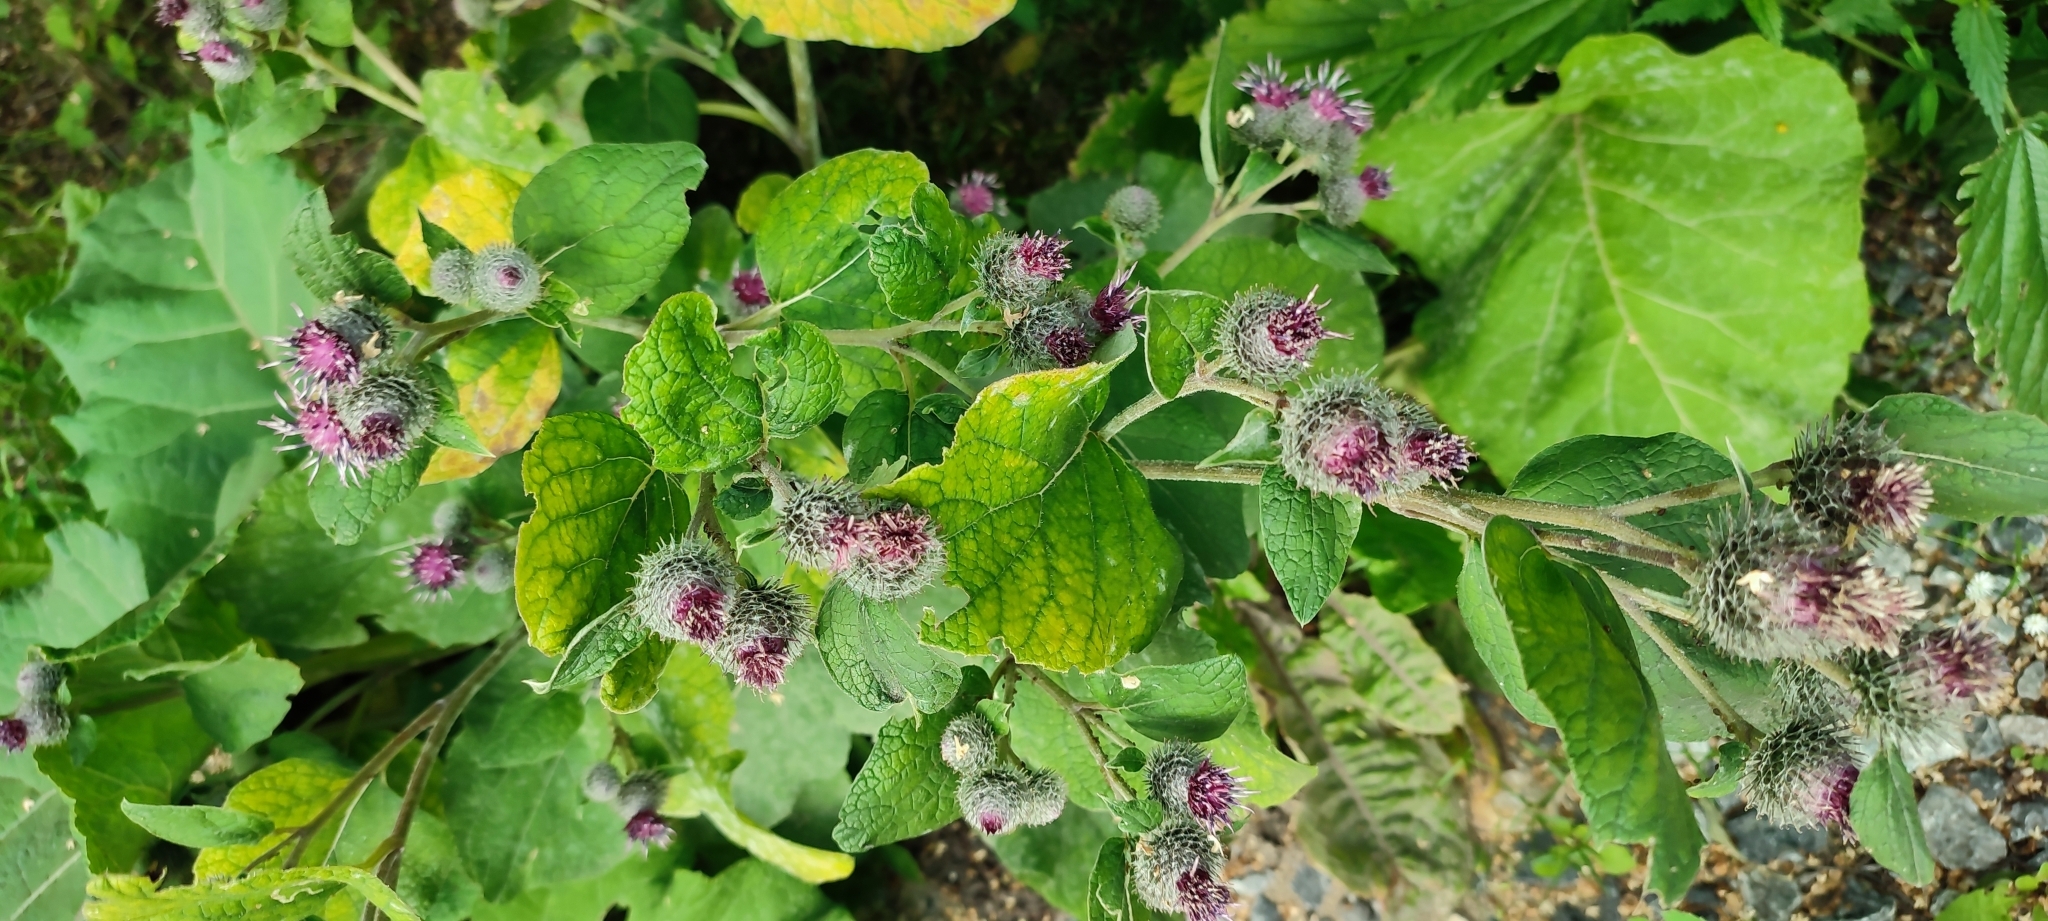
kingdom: Plantae
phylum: Tracheophyta
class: Magnoliopsida
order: Asterales
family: Asteraceae
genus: Arctium
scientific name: Arctium tomentosum
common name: Woolly burdock
